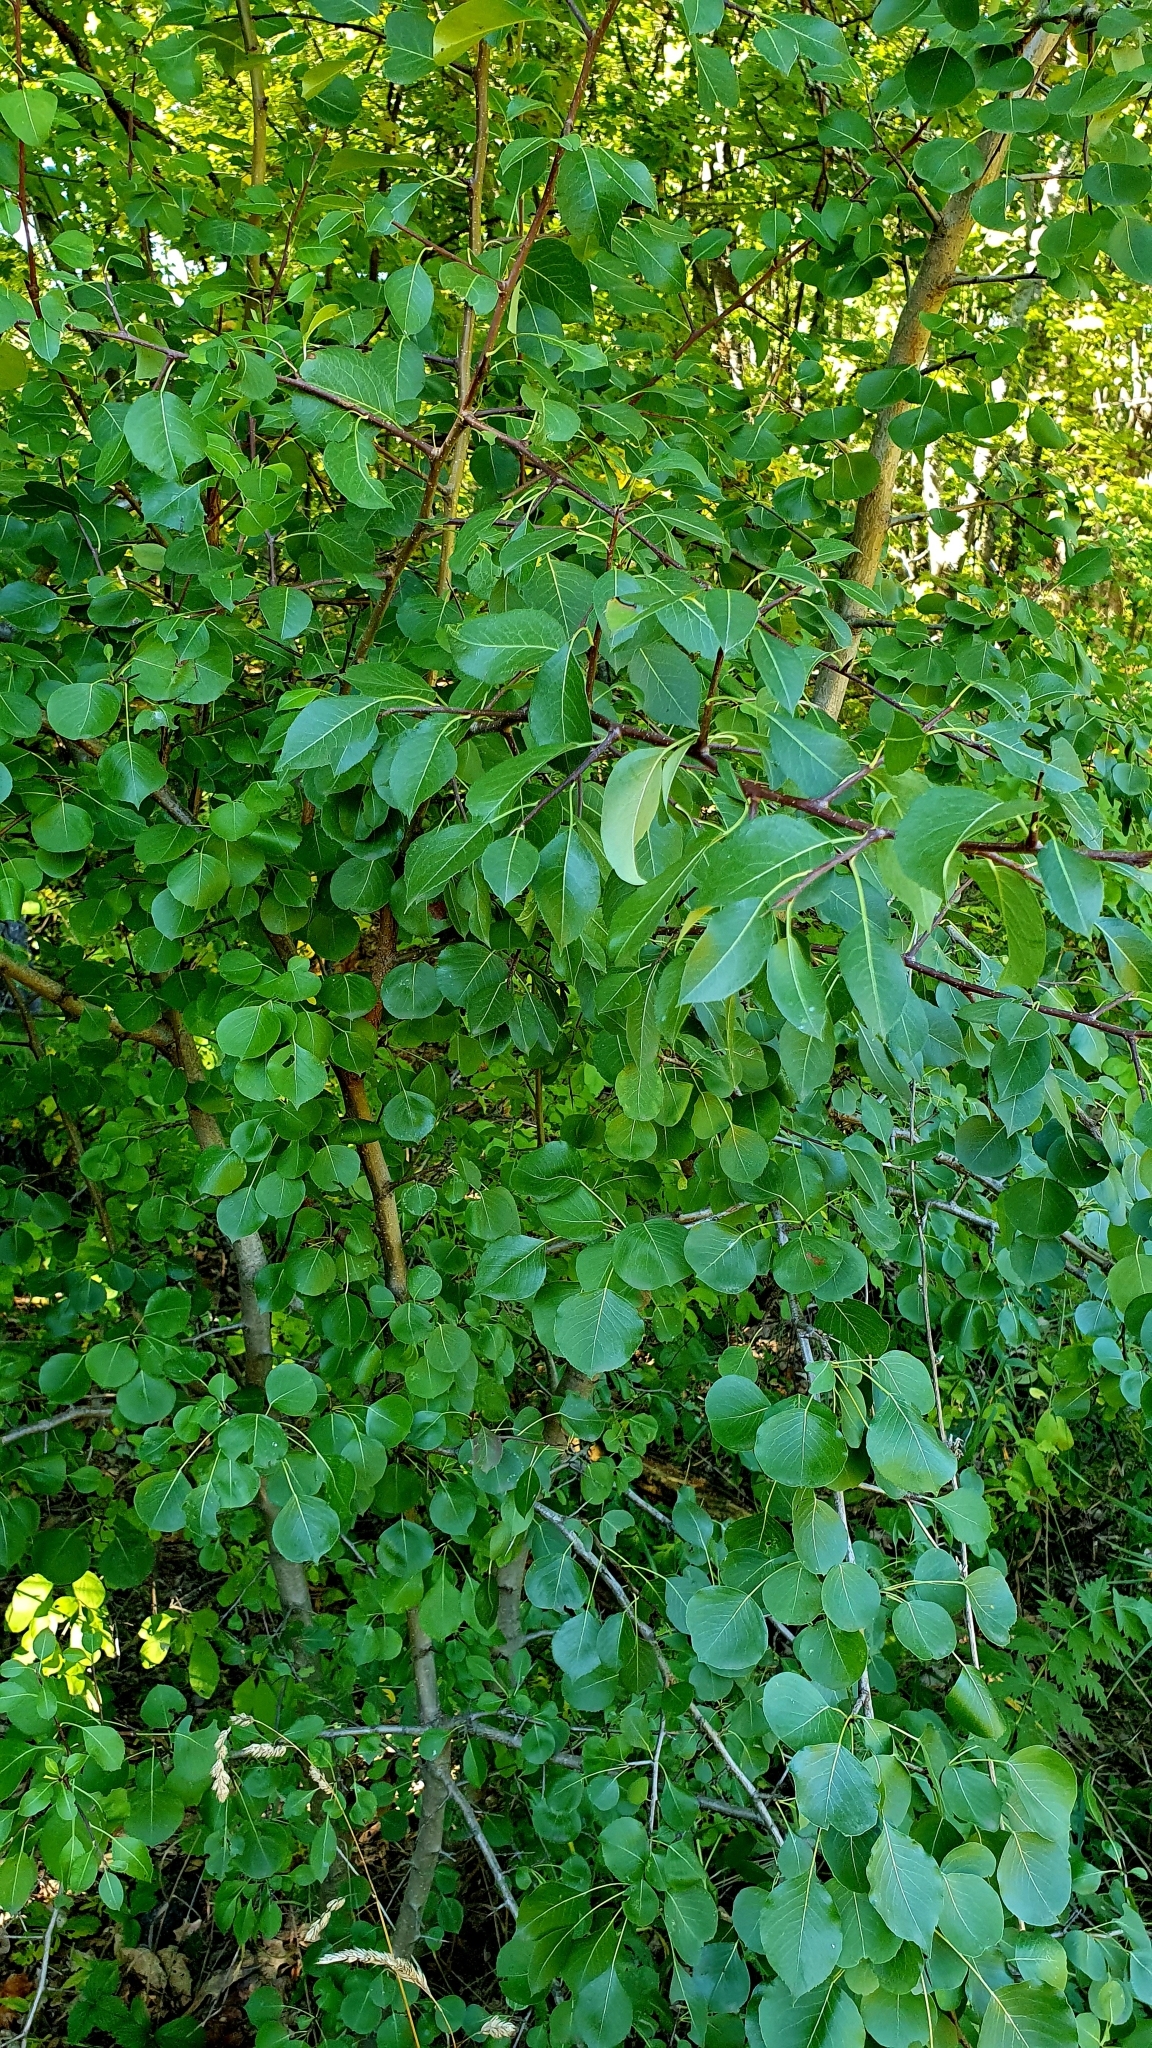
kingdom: Plantae
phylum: Tracheophyta
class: Magnoliopsida
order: Rosales
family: Rosaceae
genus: Pyrus
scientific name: Pyrus communis
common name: Pear
